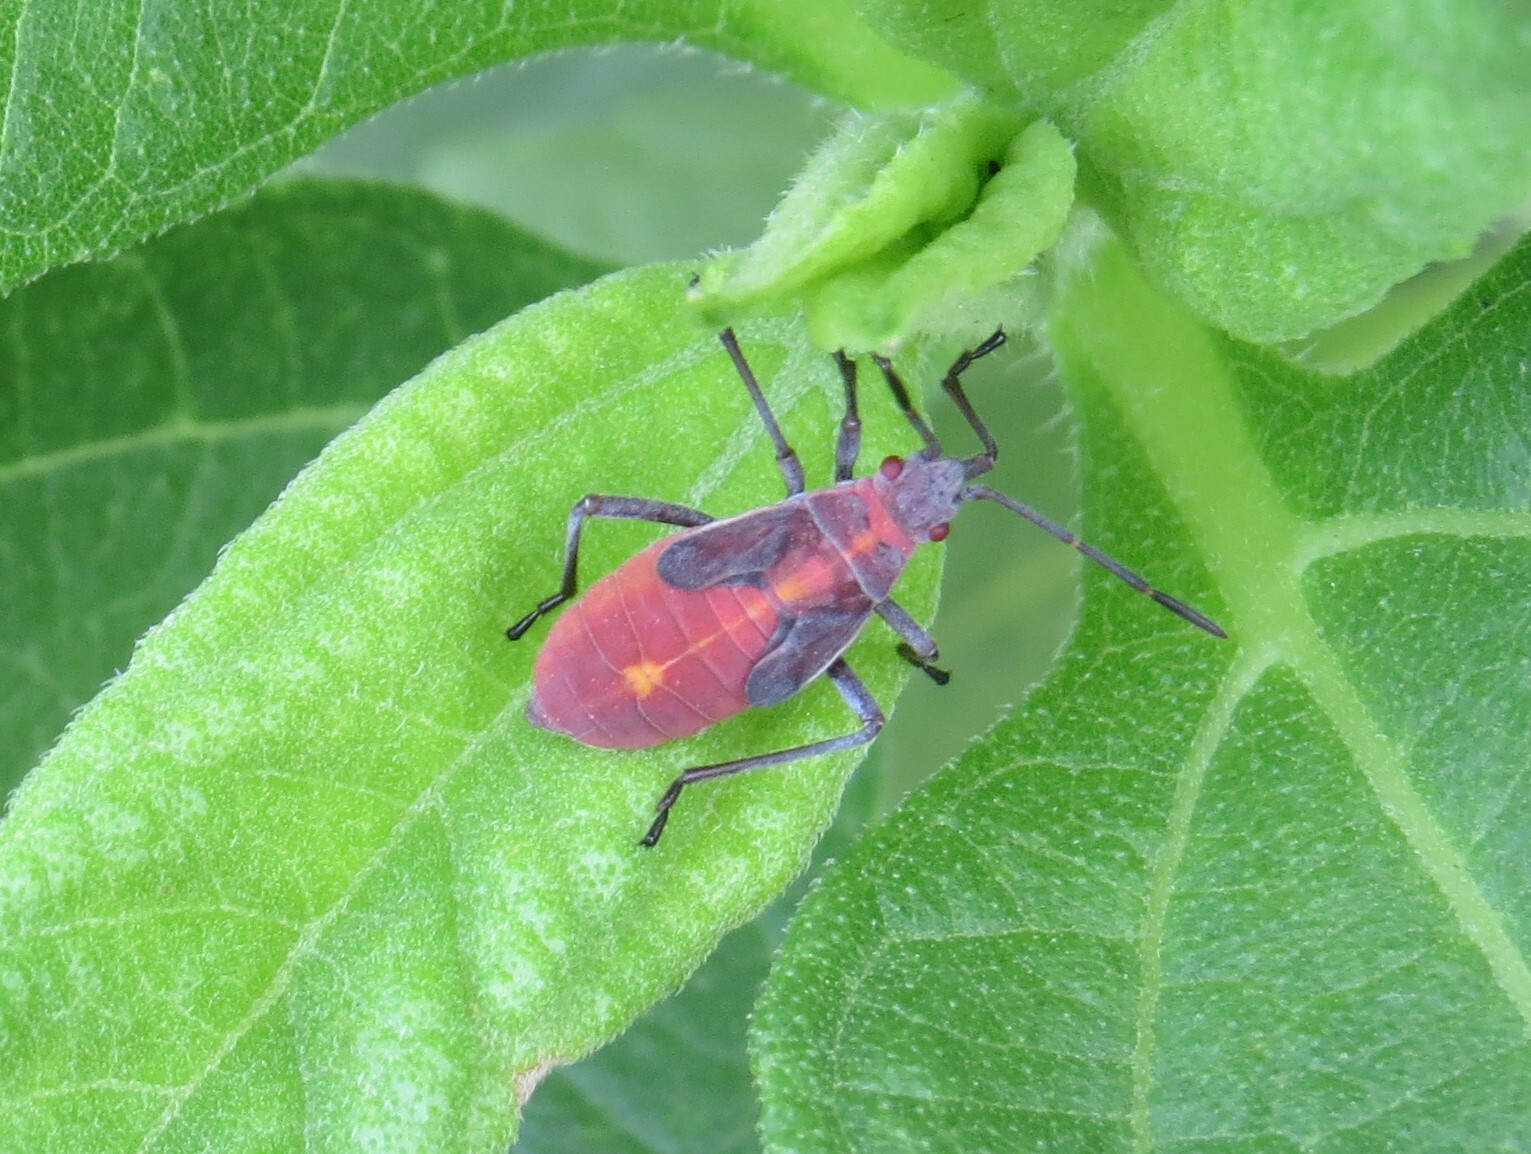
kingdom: Animalia
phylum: Arthropoda
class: Insecta
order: Hemiptera
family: Rhopalidae
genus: Boisea
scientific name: Boisea trivittata
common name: Boxelder bug
